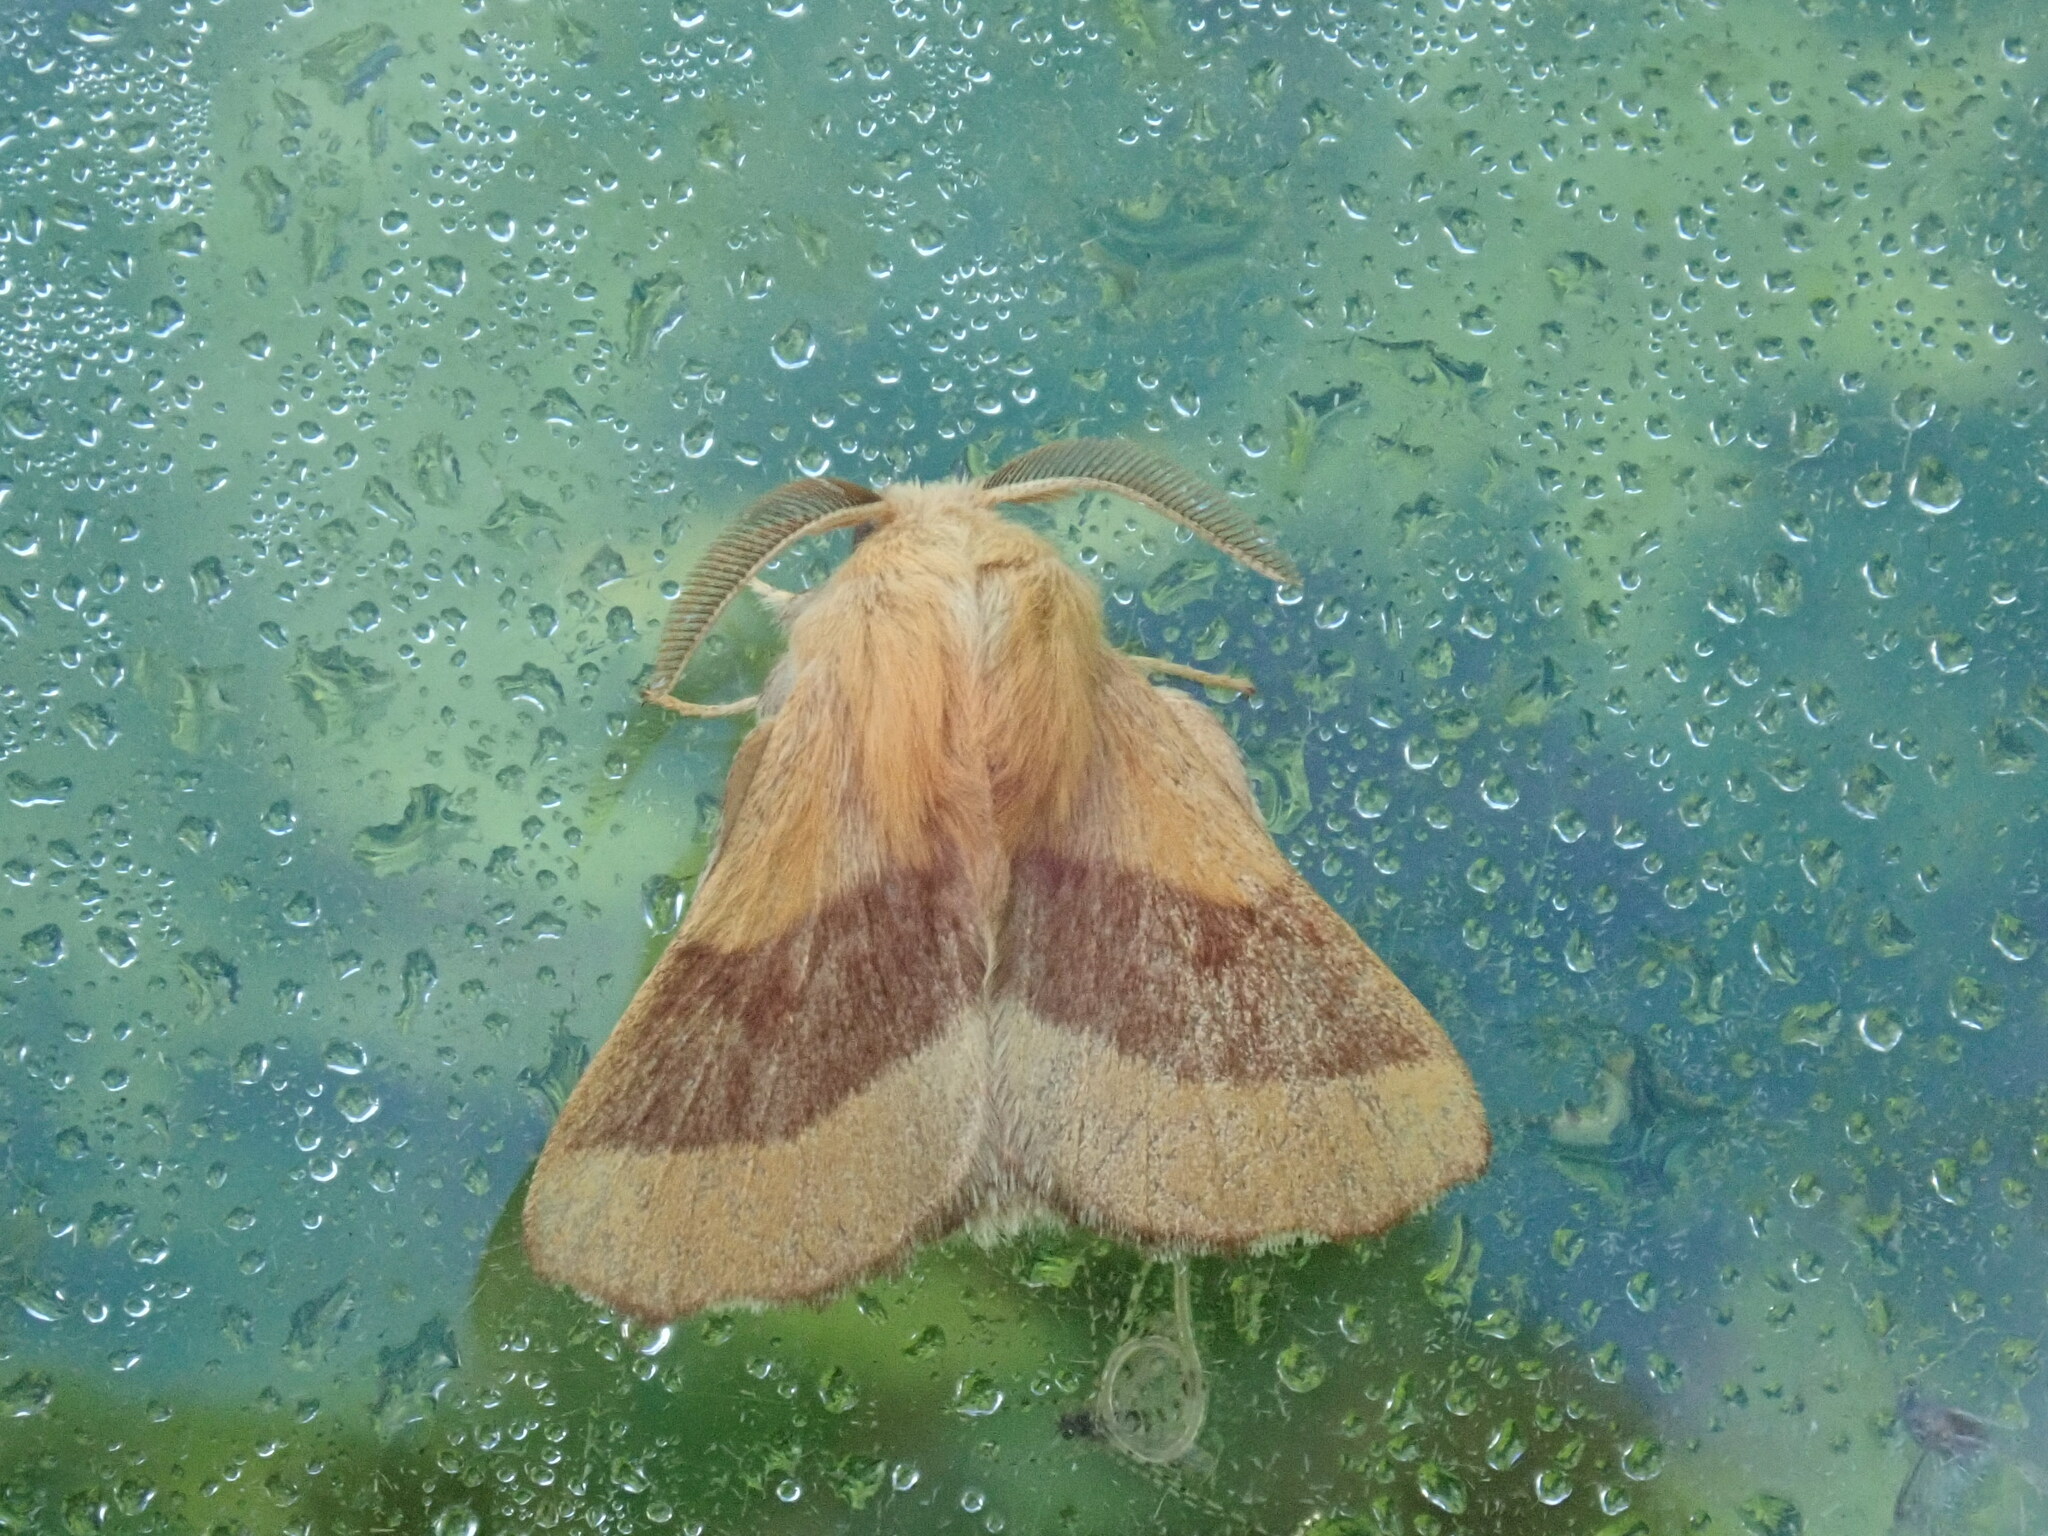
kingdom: Animalia
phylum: Arthropoda
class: Insecta
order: Lepidoptera
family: Lasiocampidae
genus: Malacosoma
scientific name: Malacosoma disstria
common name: Forest tent caterpillar
